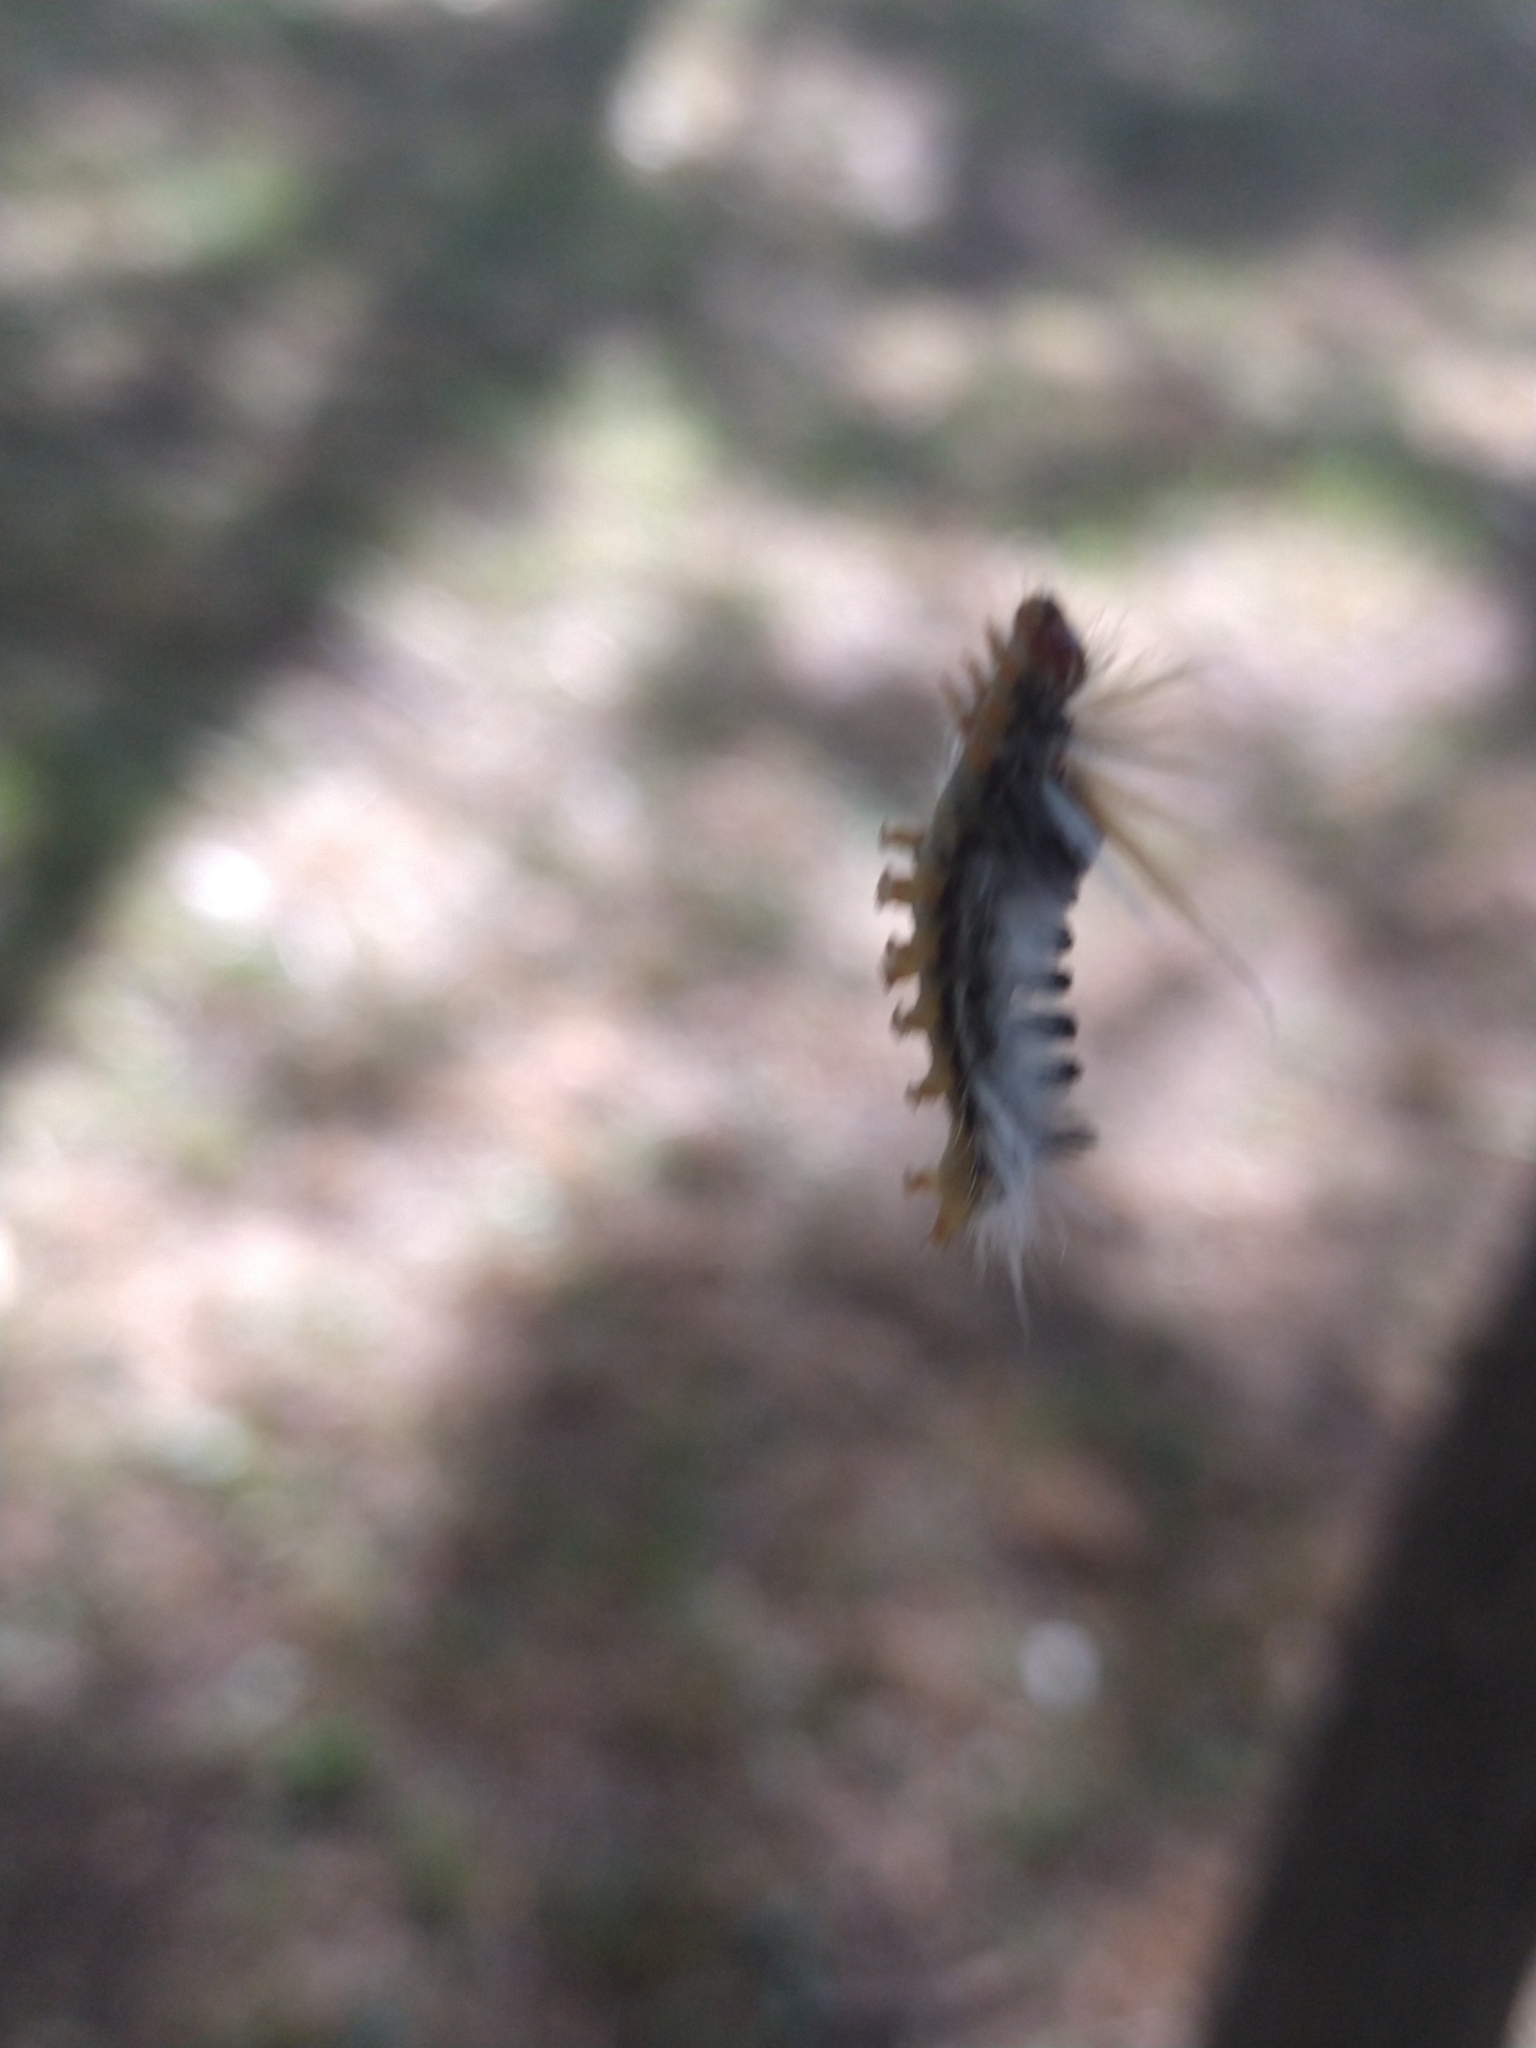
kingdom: Animalia
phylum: Arthropoda
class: Insecta
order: Lepidoptera
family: Erebidae
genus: Halysidota
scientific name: Halysidota ruscheweyhi
